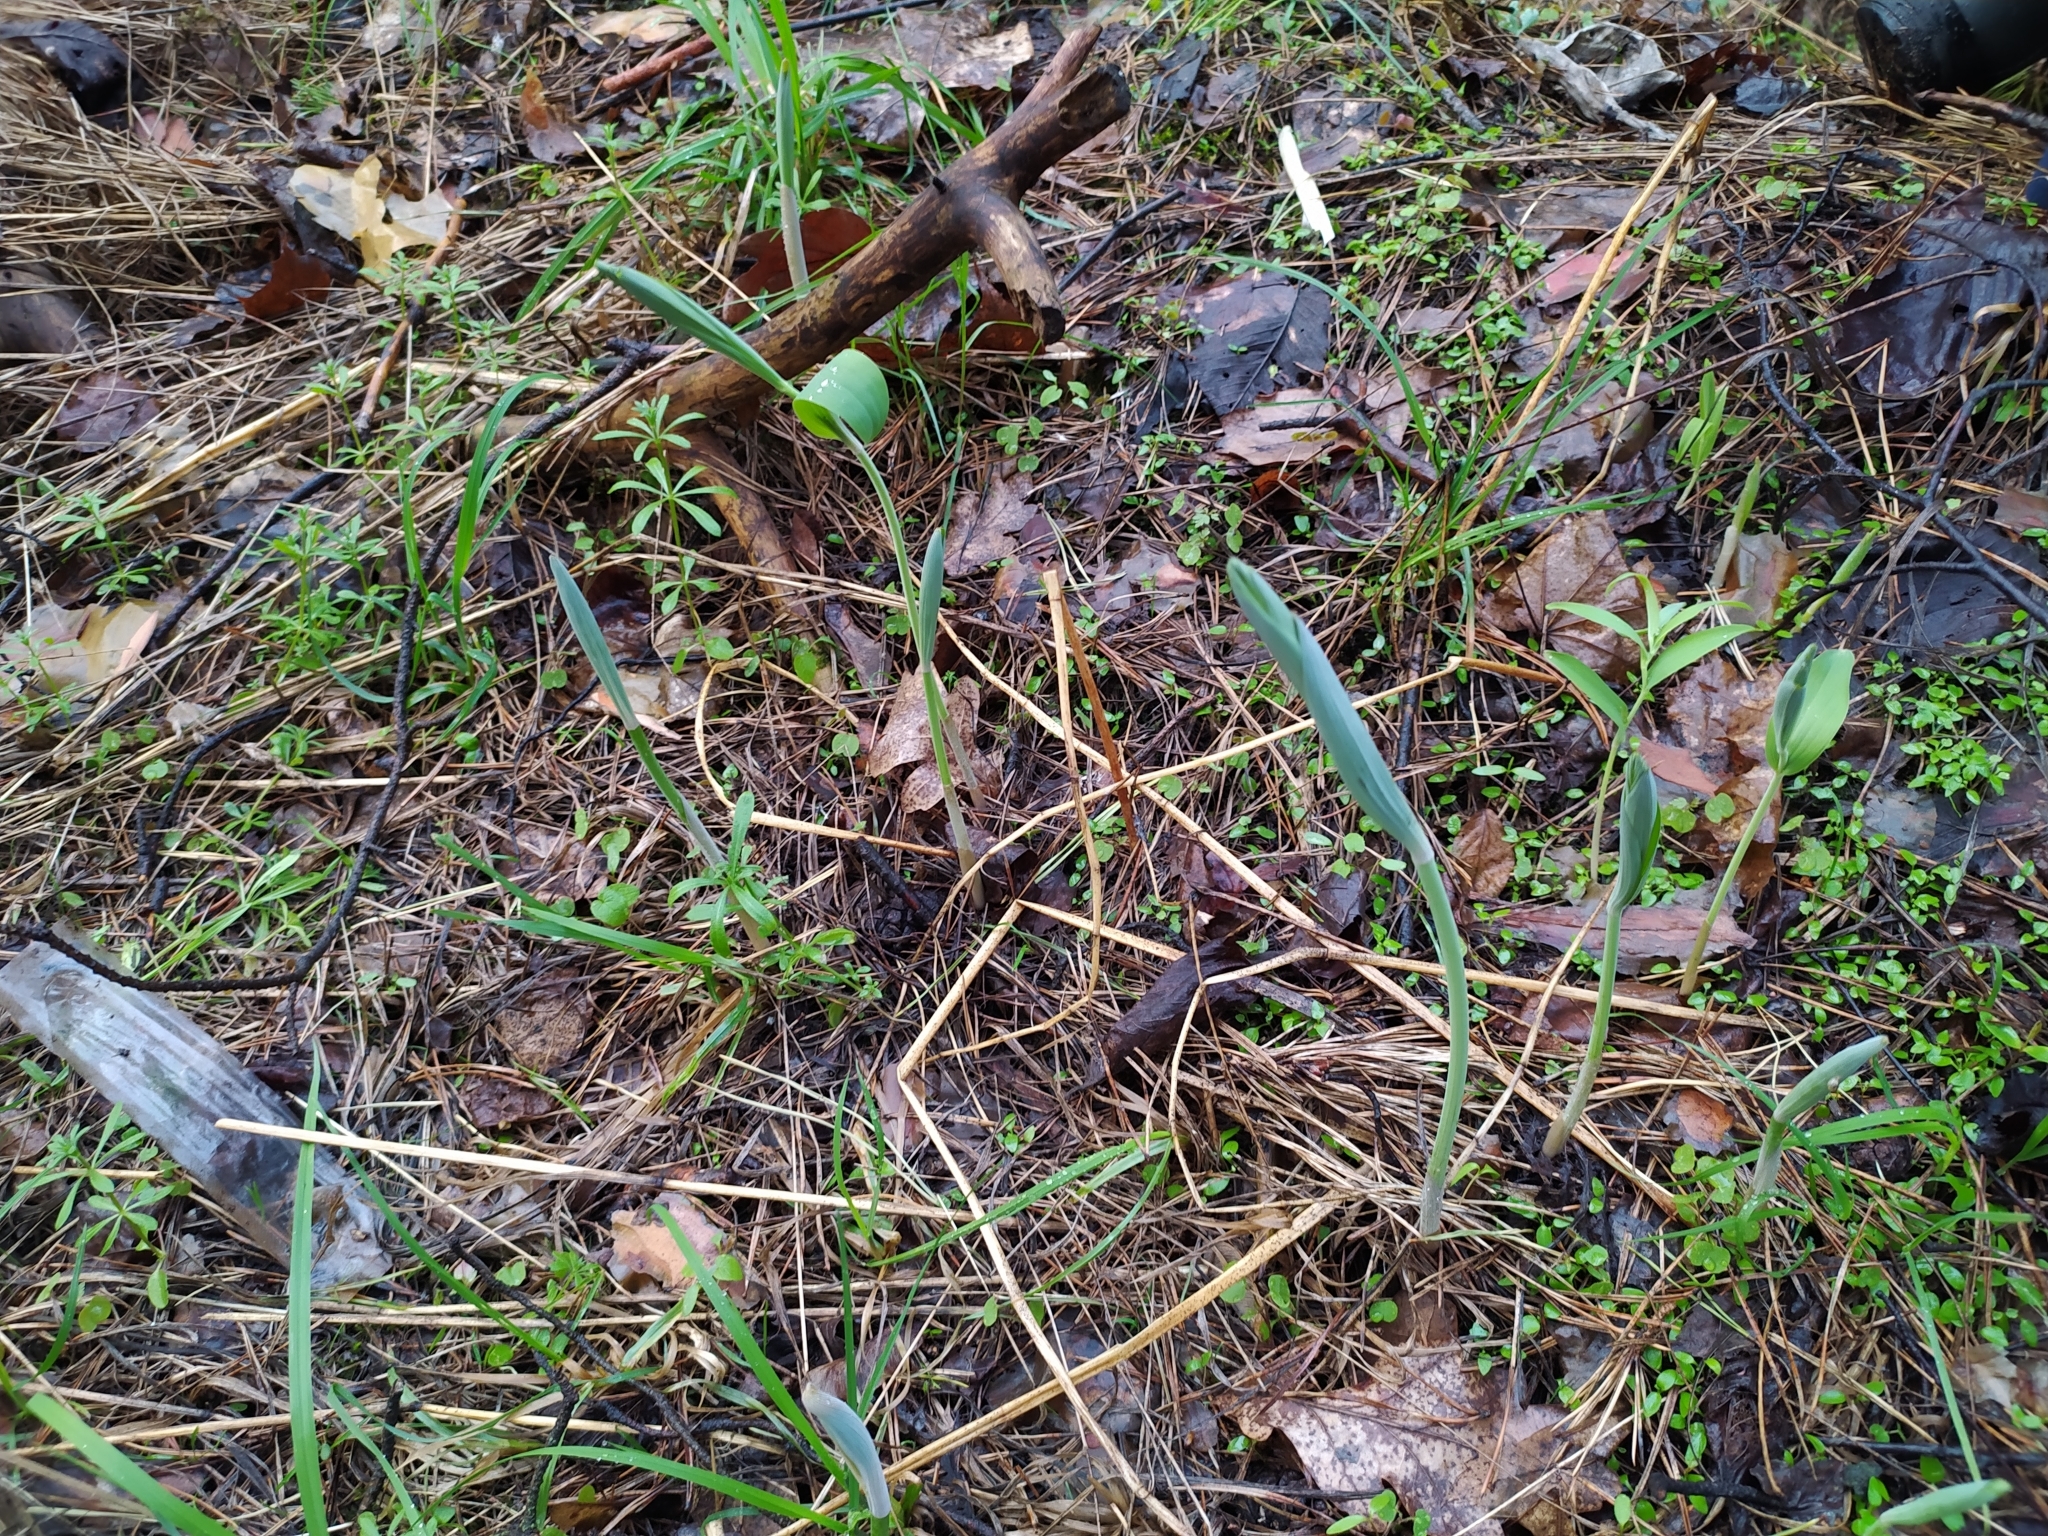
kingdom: Plantae
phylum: Tracheophyta
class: Liliopsida
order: Asparagales
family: Asparagaceae
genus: Polygonatum
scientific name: Polygonatum multiflorum
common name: Solomon's-seal
